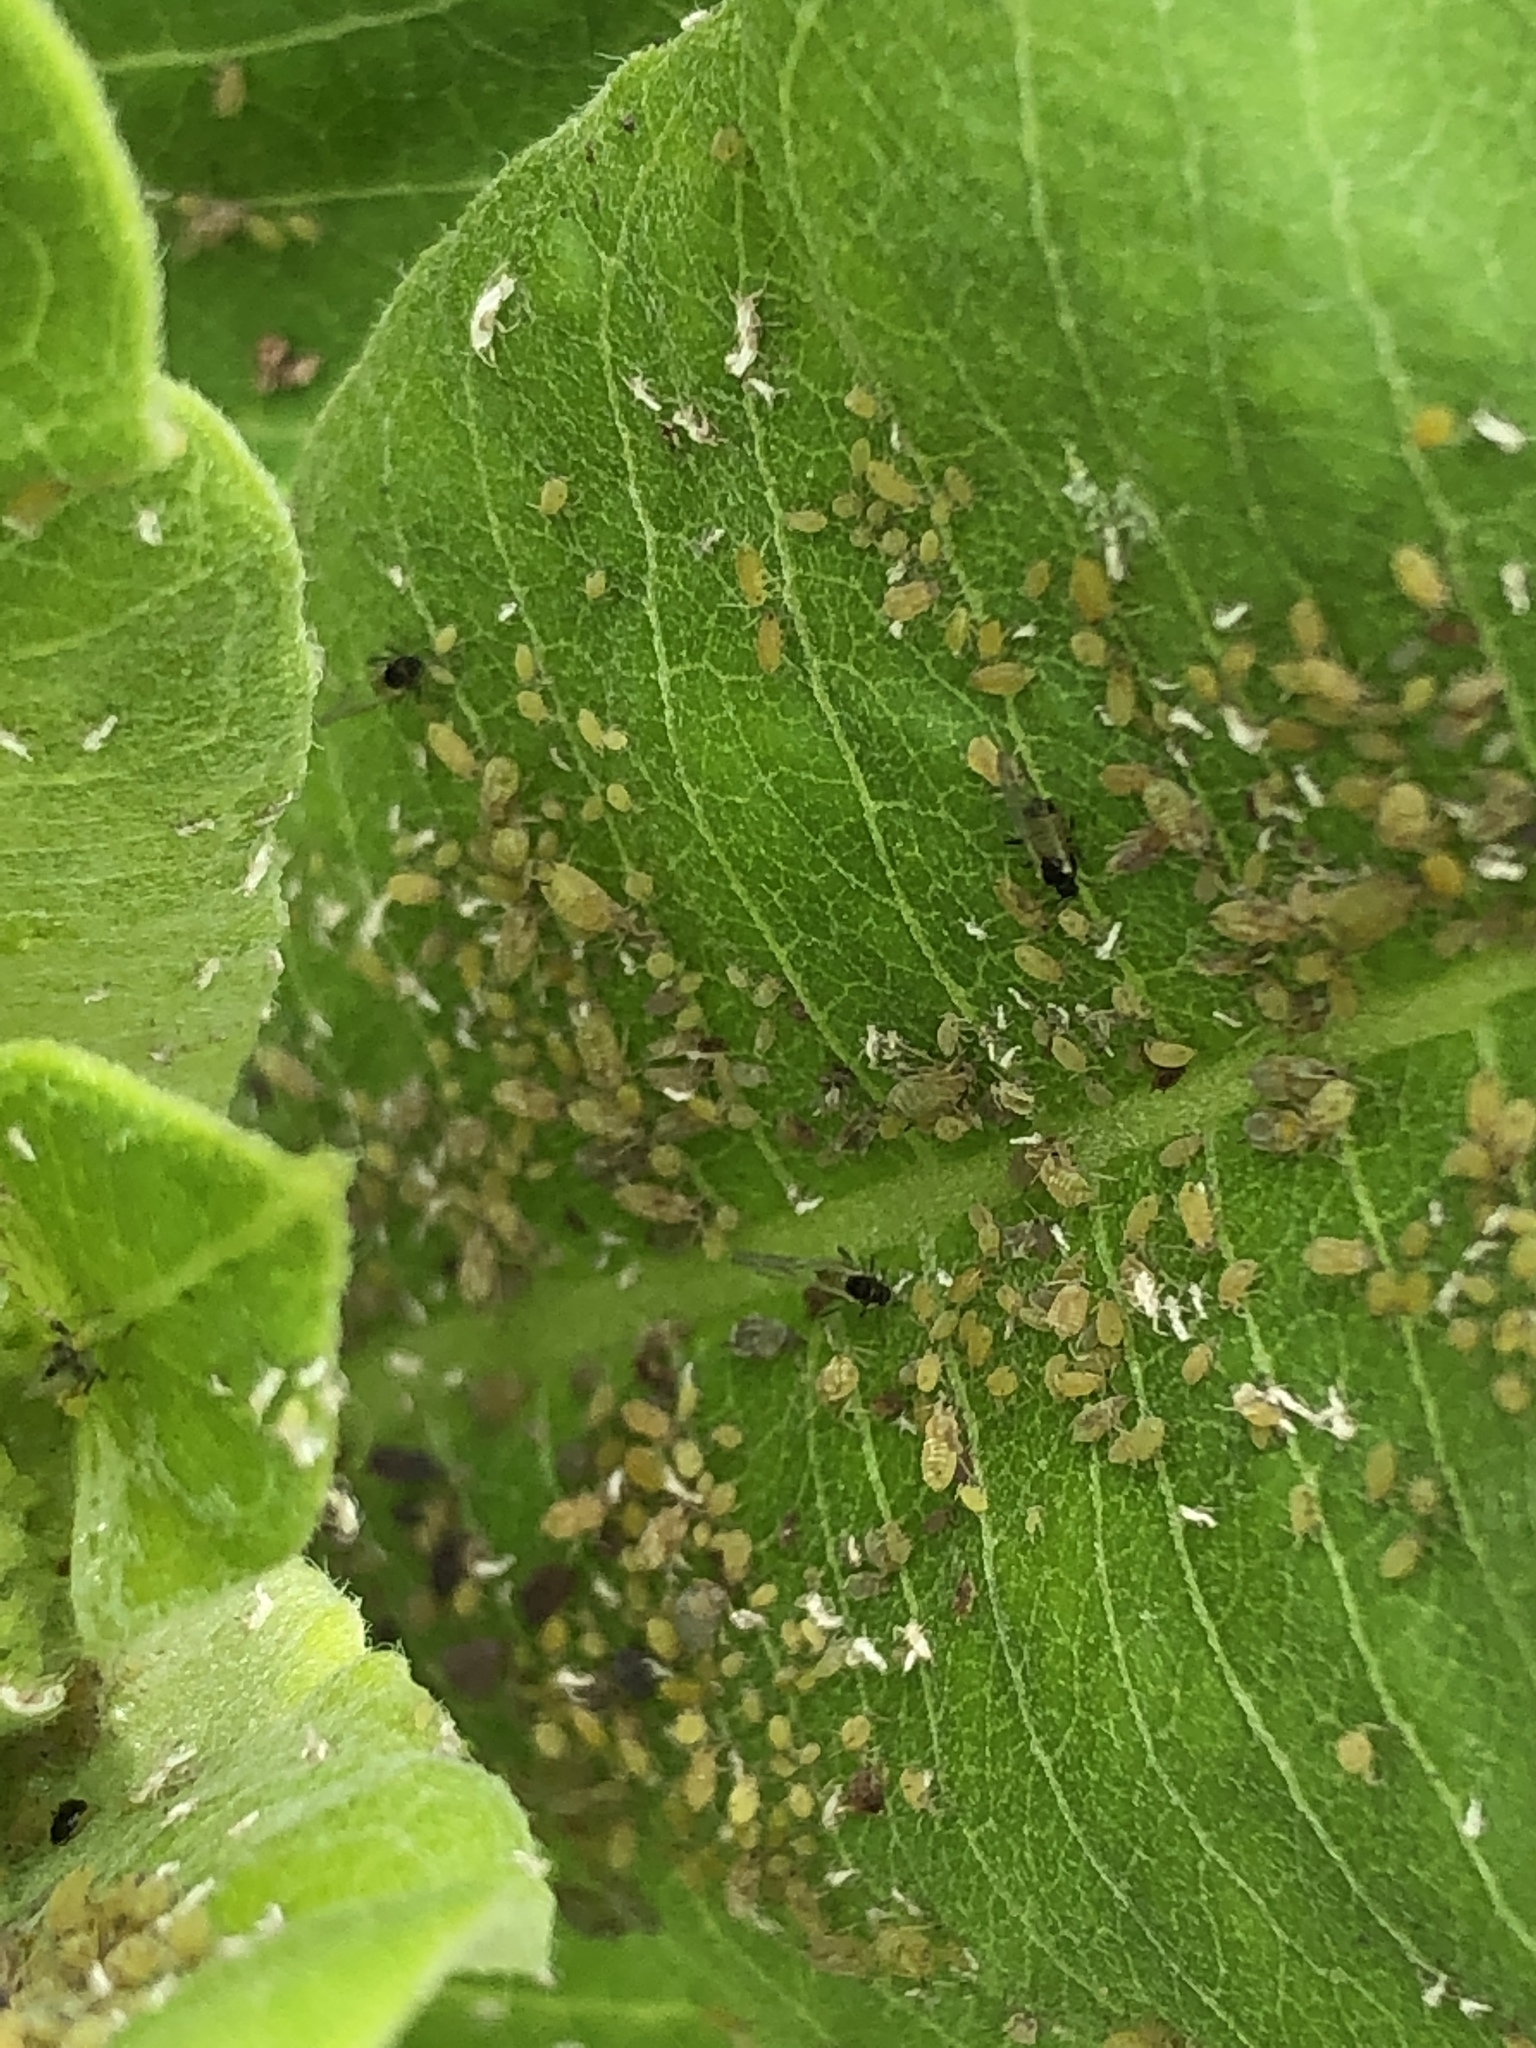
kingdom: Animalia
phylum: Arthropoda
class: Insecta
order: Hemiptera
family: Aphididae
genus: Aphis
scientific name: Aphis asclepiadis
